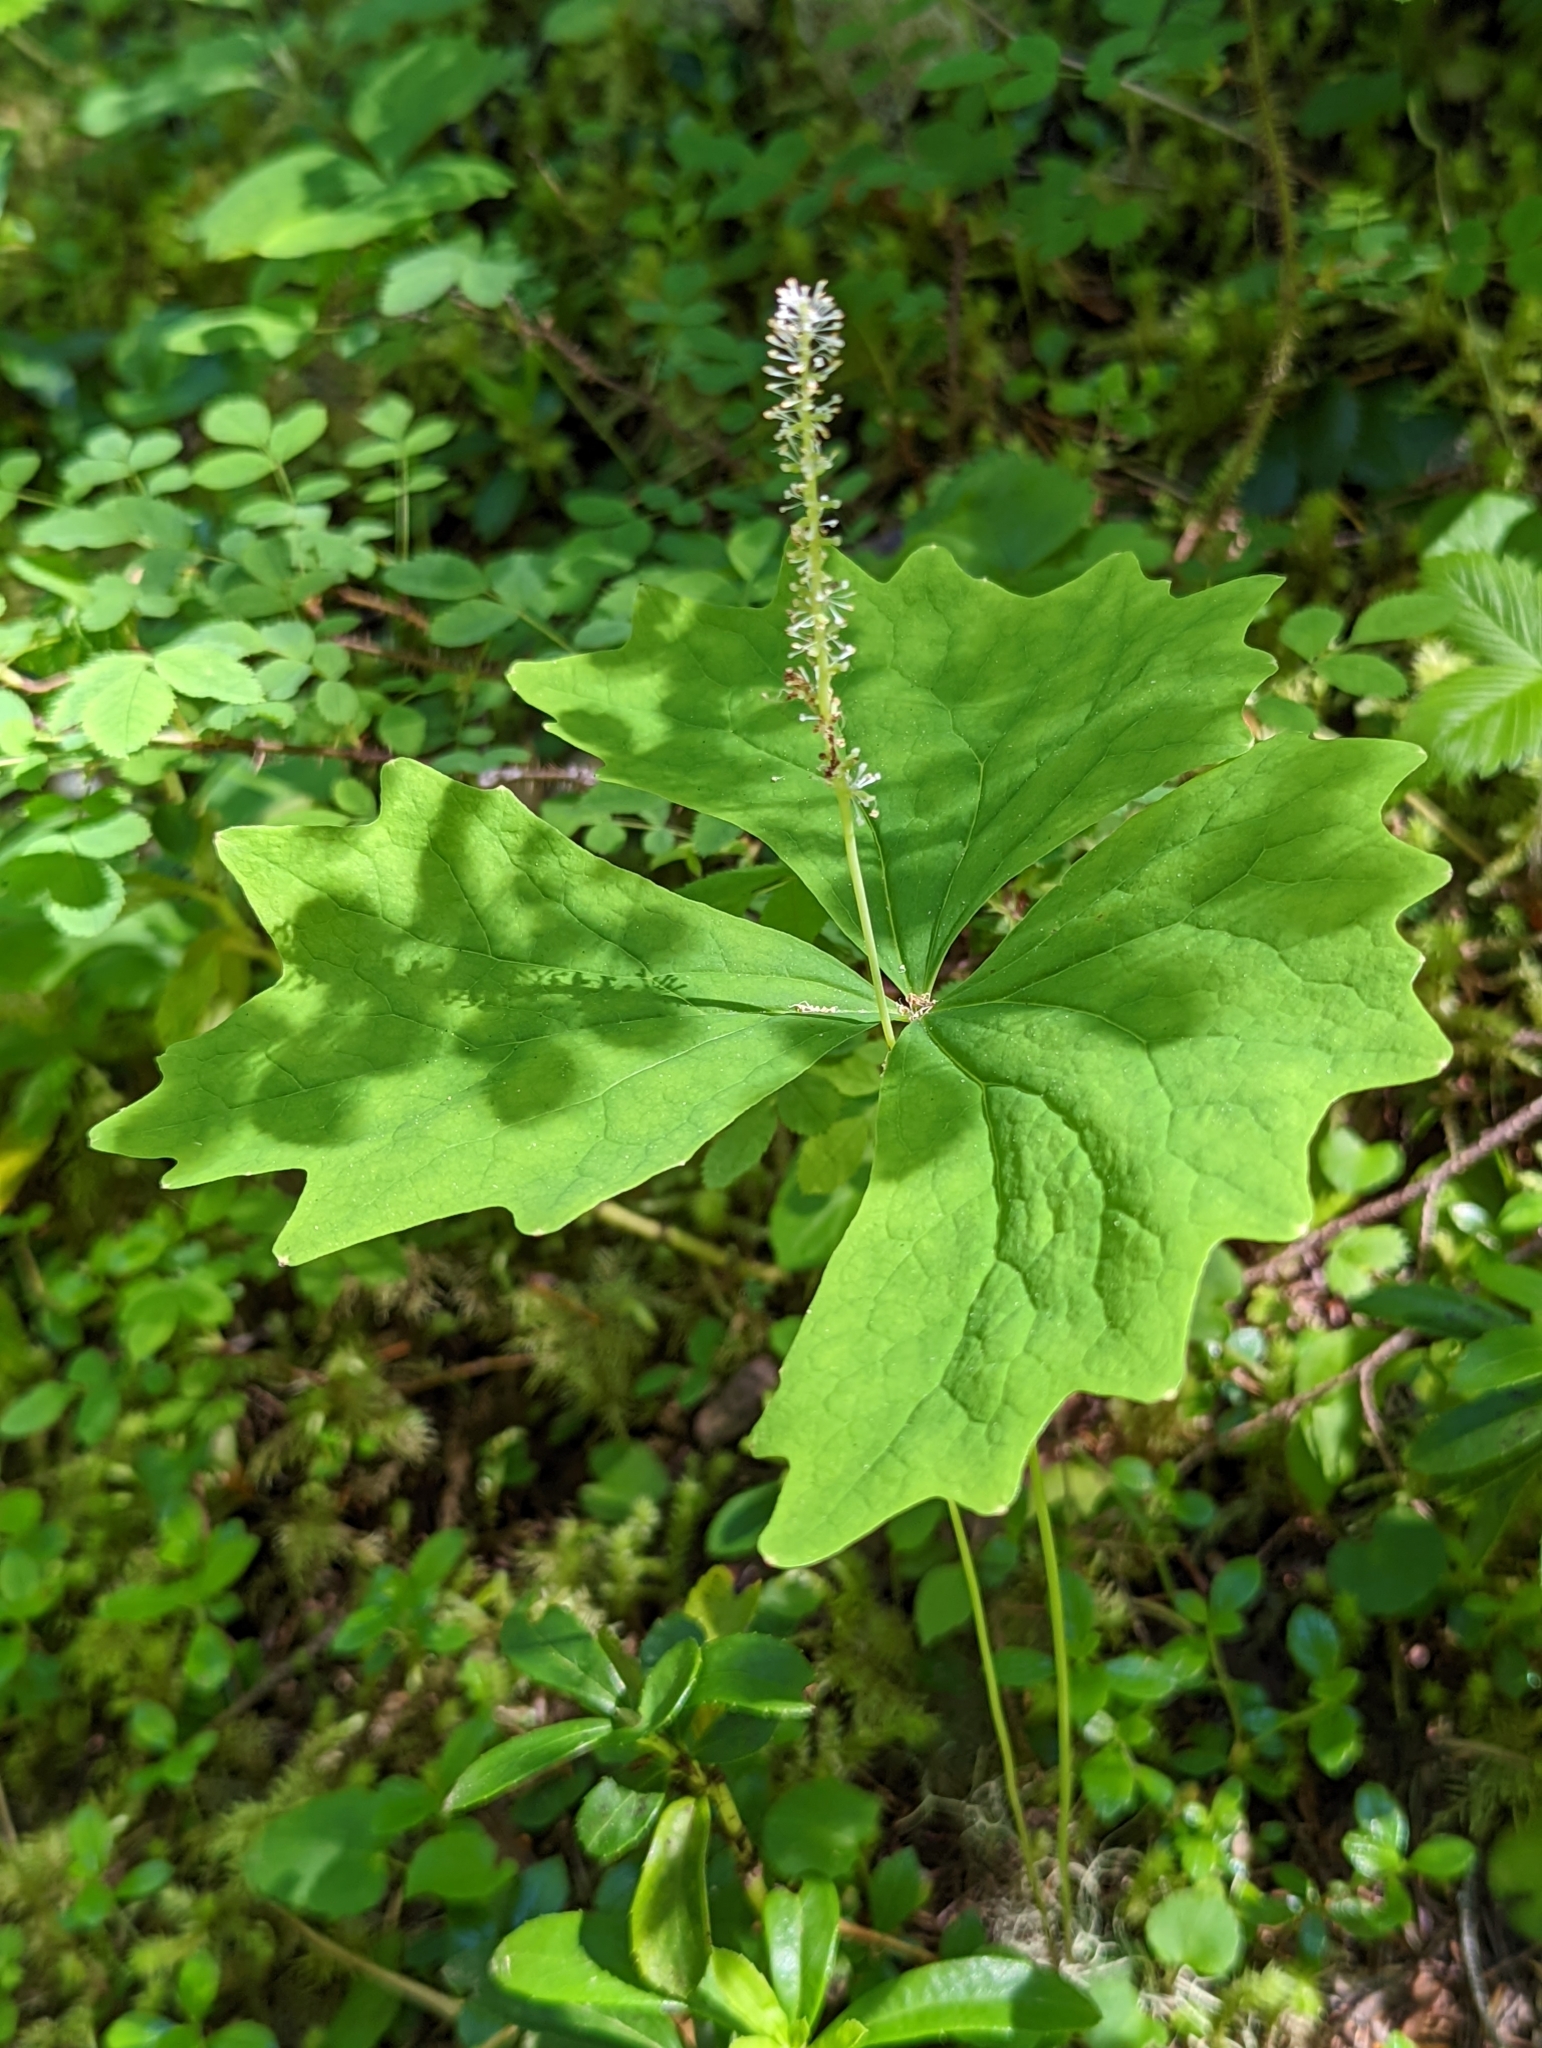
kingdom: Plantae
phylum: Tracheophyta
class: Magnoliopsida
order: Ranunculales
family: Berberidaceae
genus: Achlys
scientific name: Achlys triphylla
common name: Vanilla-leaf
